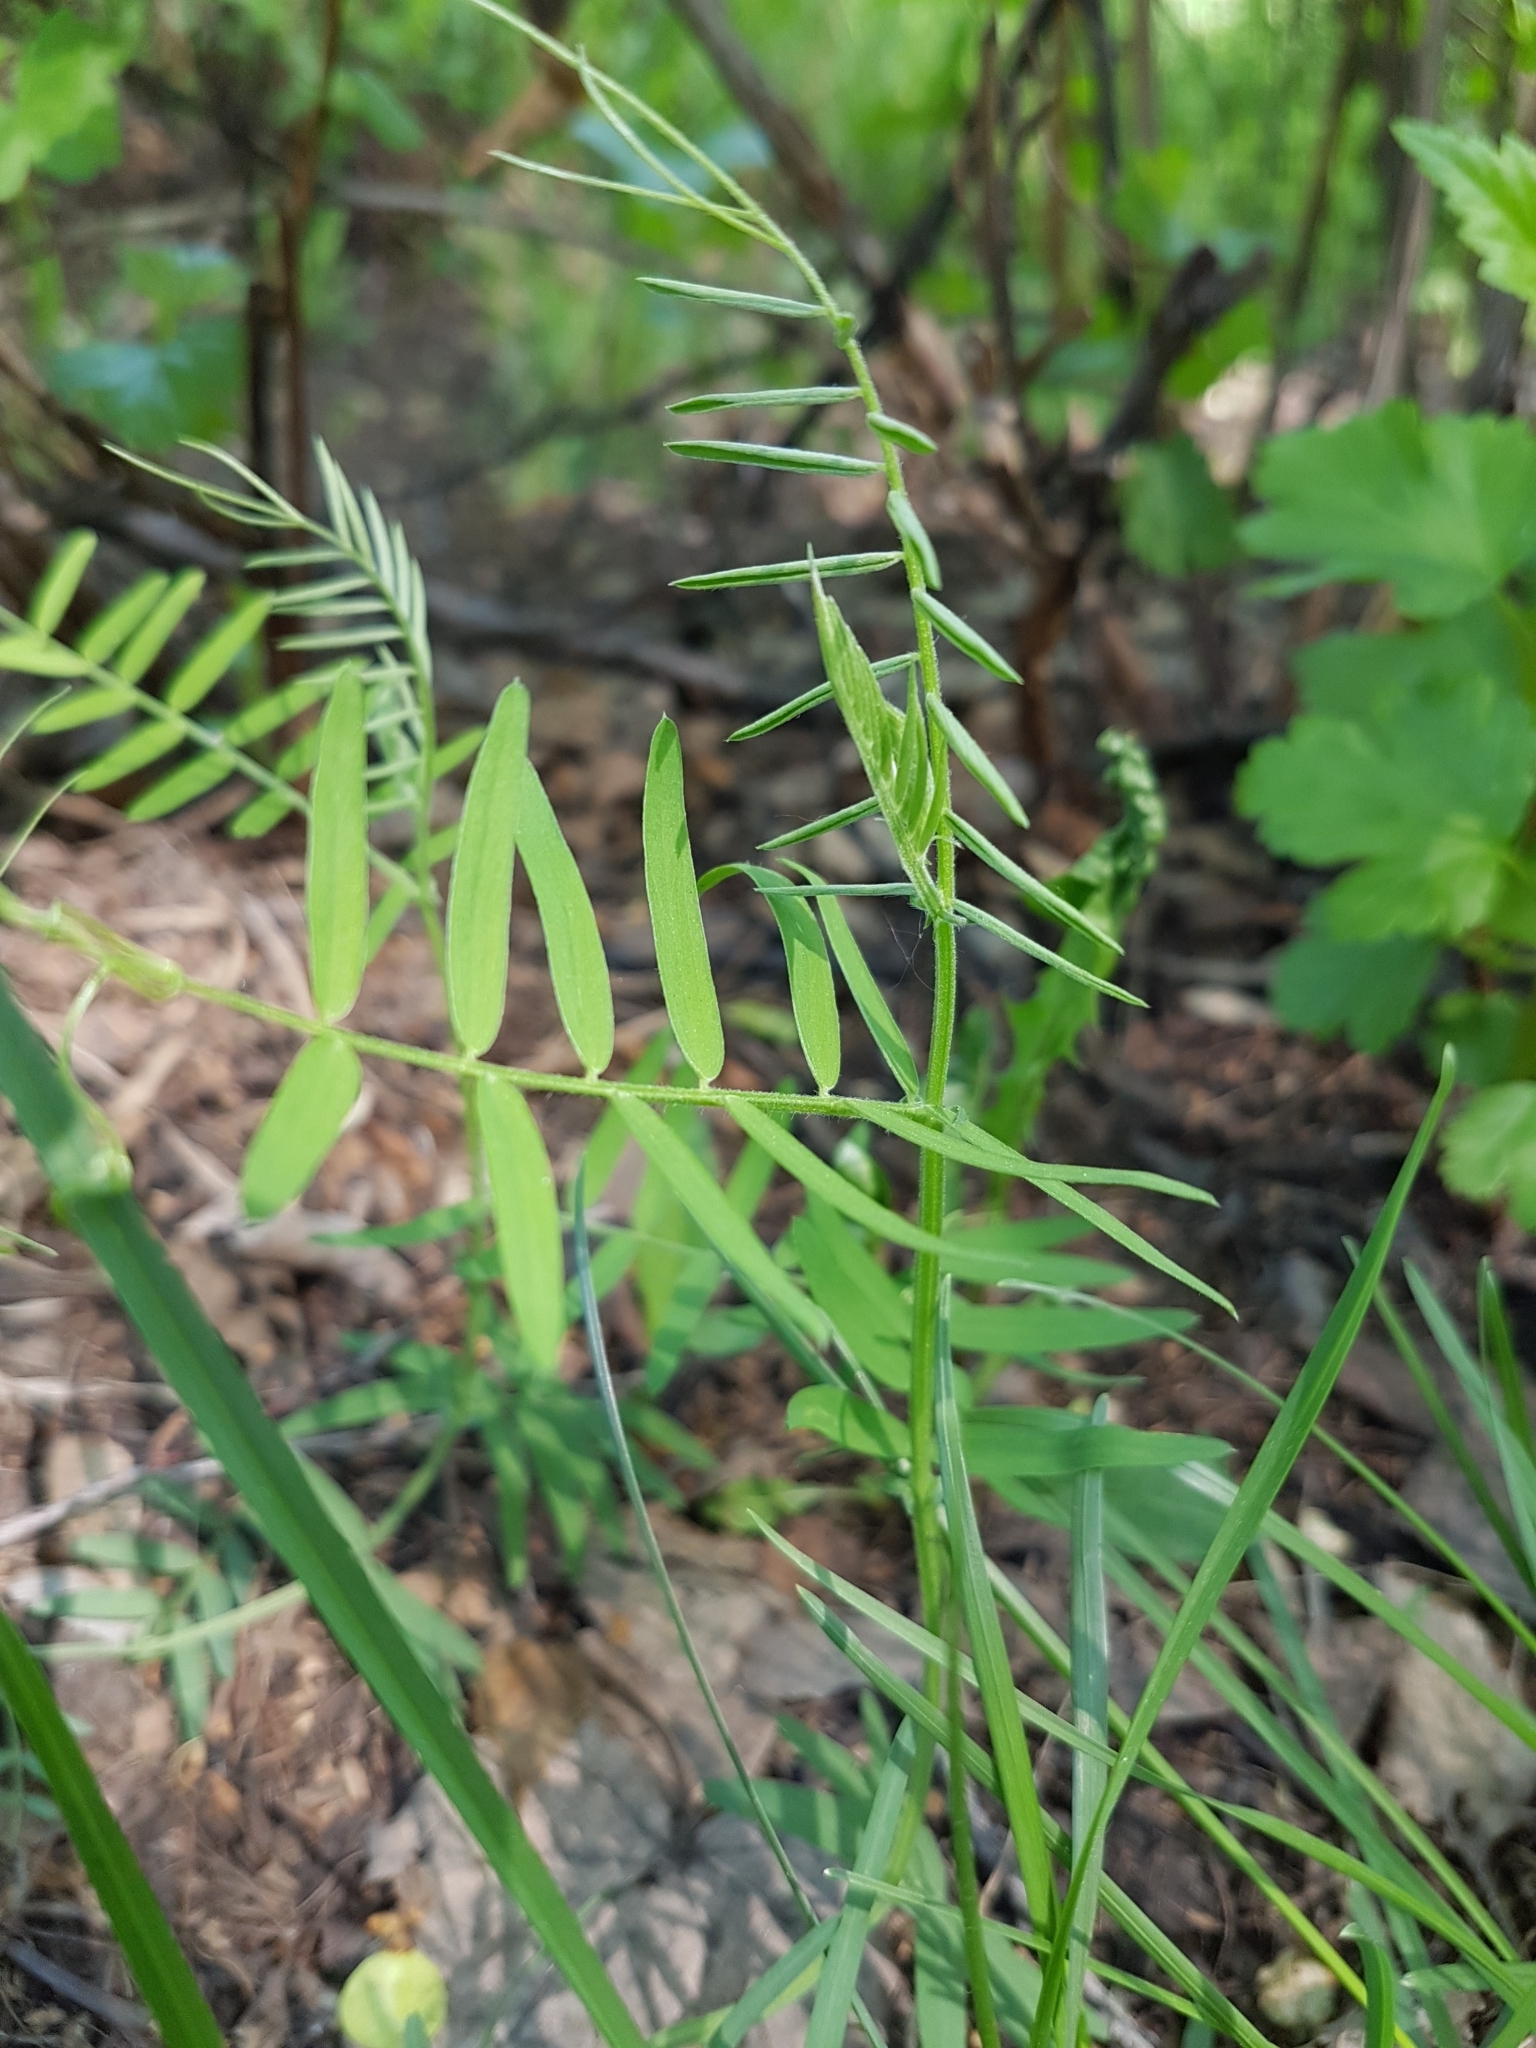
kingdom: Plantae
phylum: Tracheophyta
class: Magnoliopsida
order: Fabales
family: Fabaceae
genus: Vicia
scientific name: Vicia cracca
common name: Bird vetch
